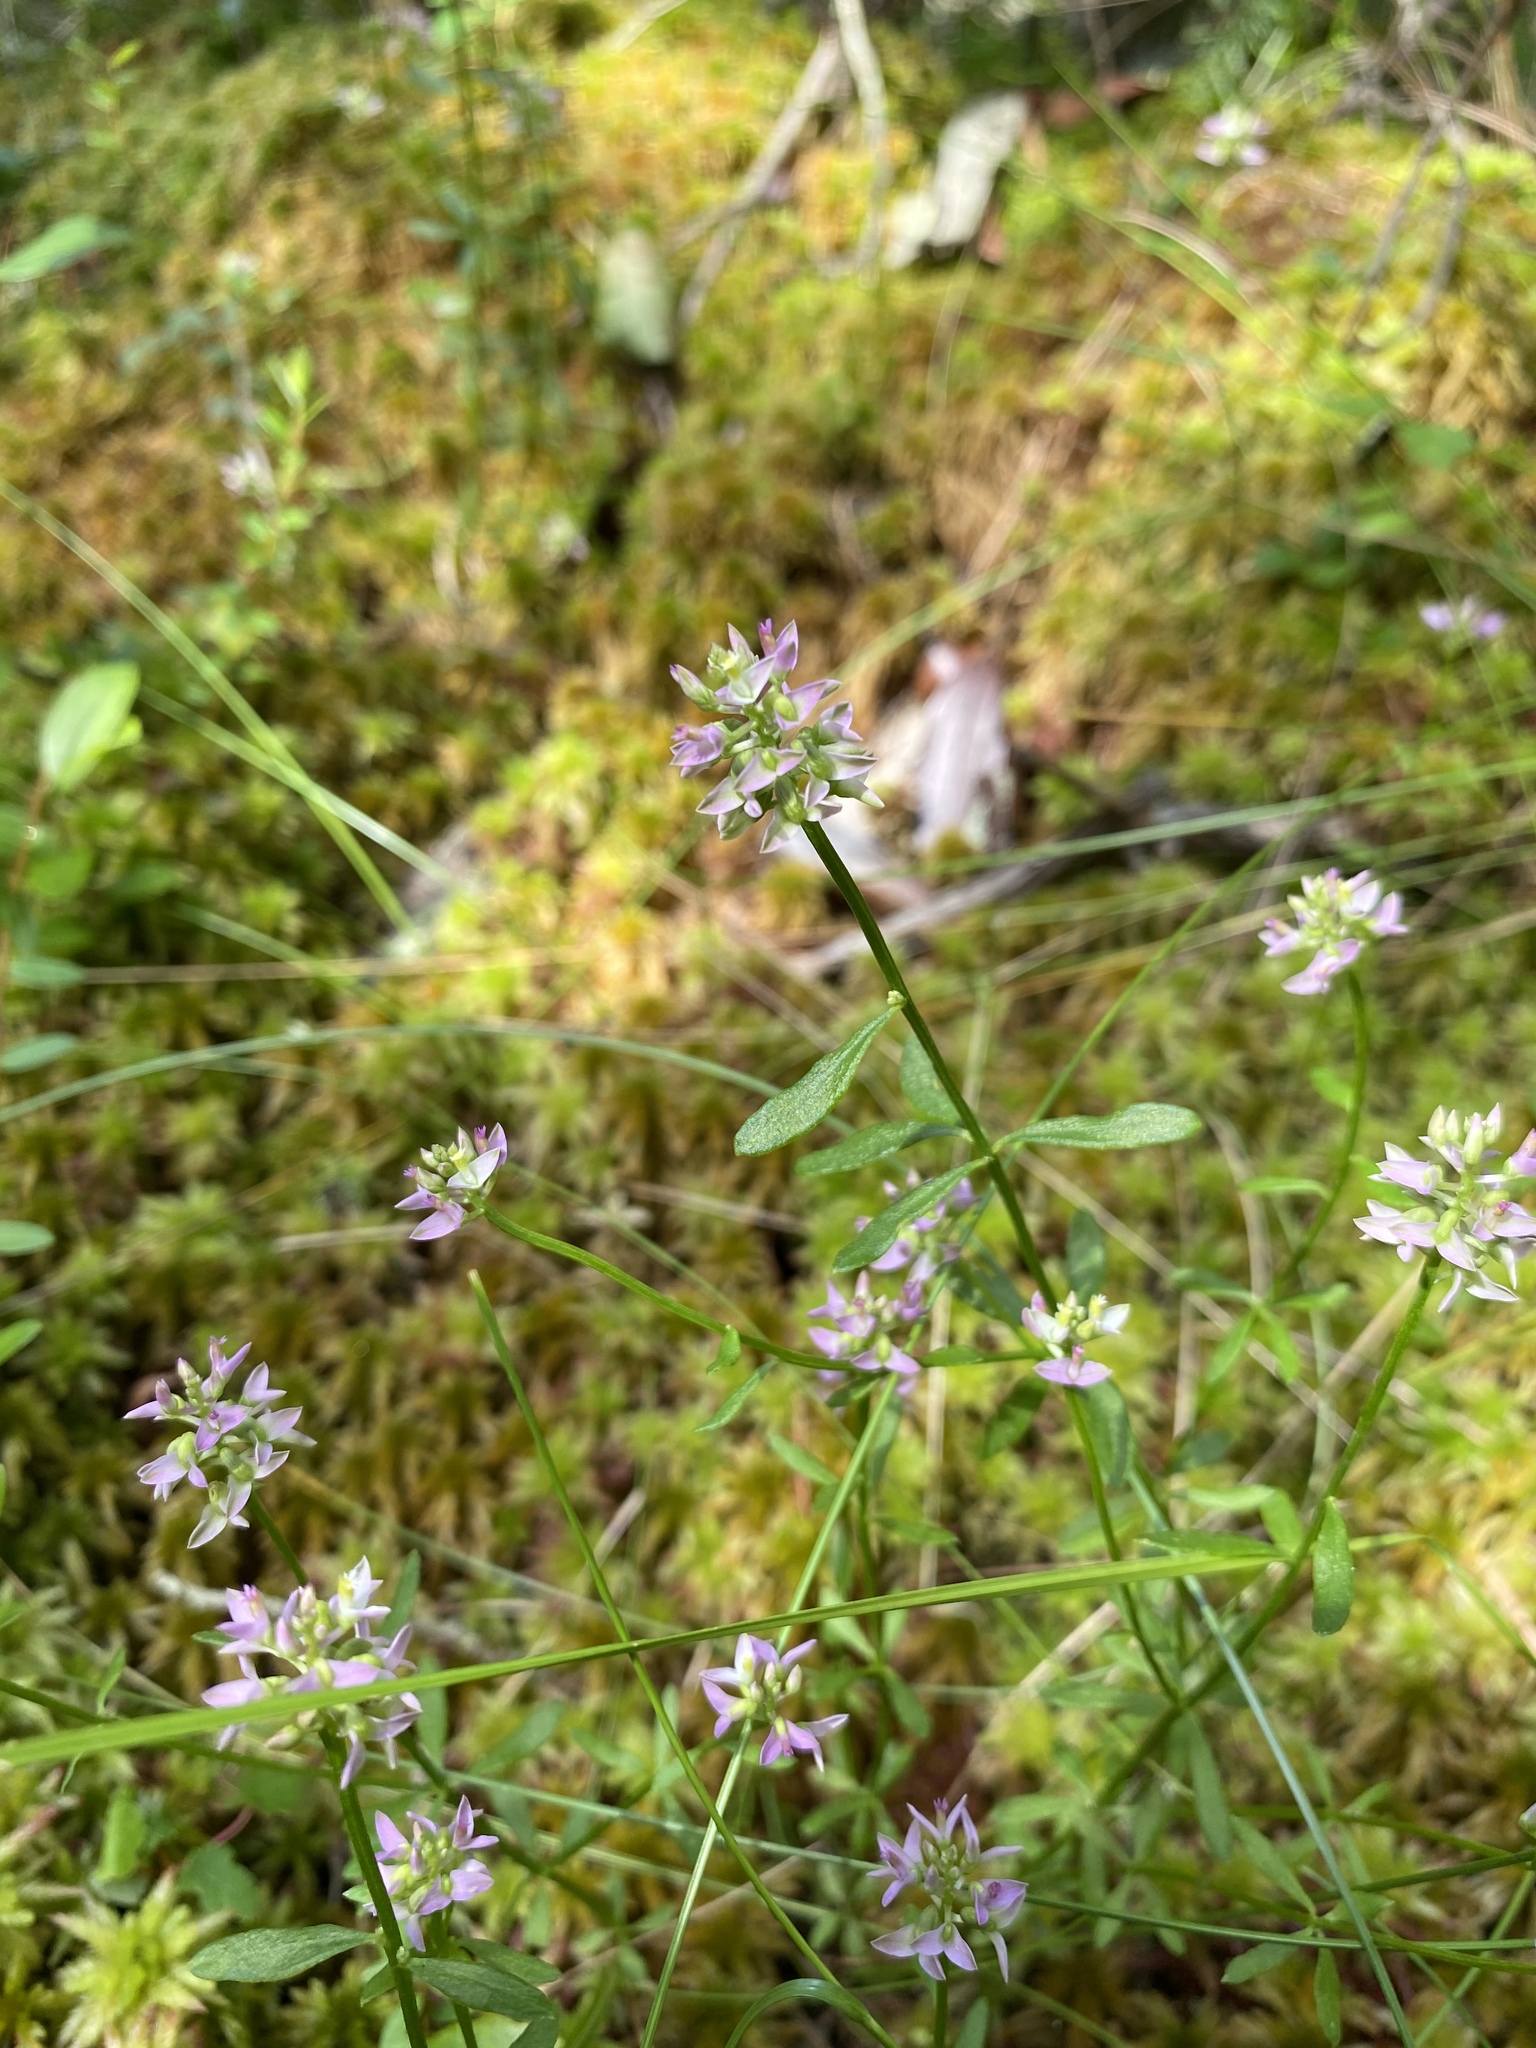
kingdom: Plantae
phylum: Tracheophyta
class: Magnoliopsida
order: Fabales
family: Polygalaceae
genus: Polygala
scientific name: Polygala brevifolia
